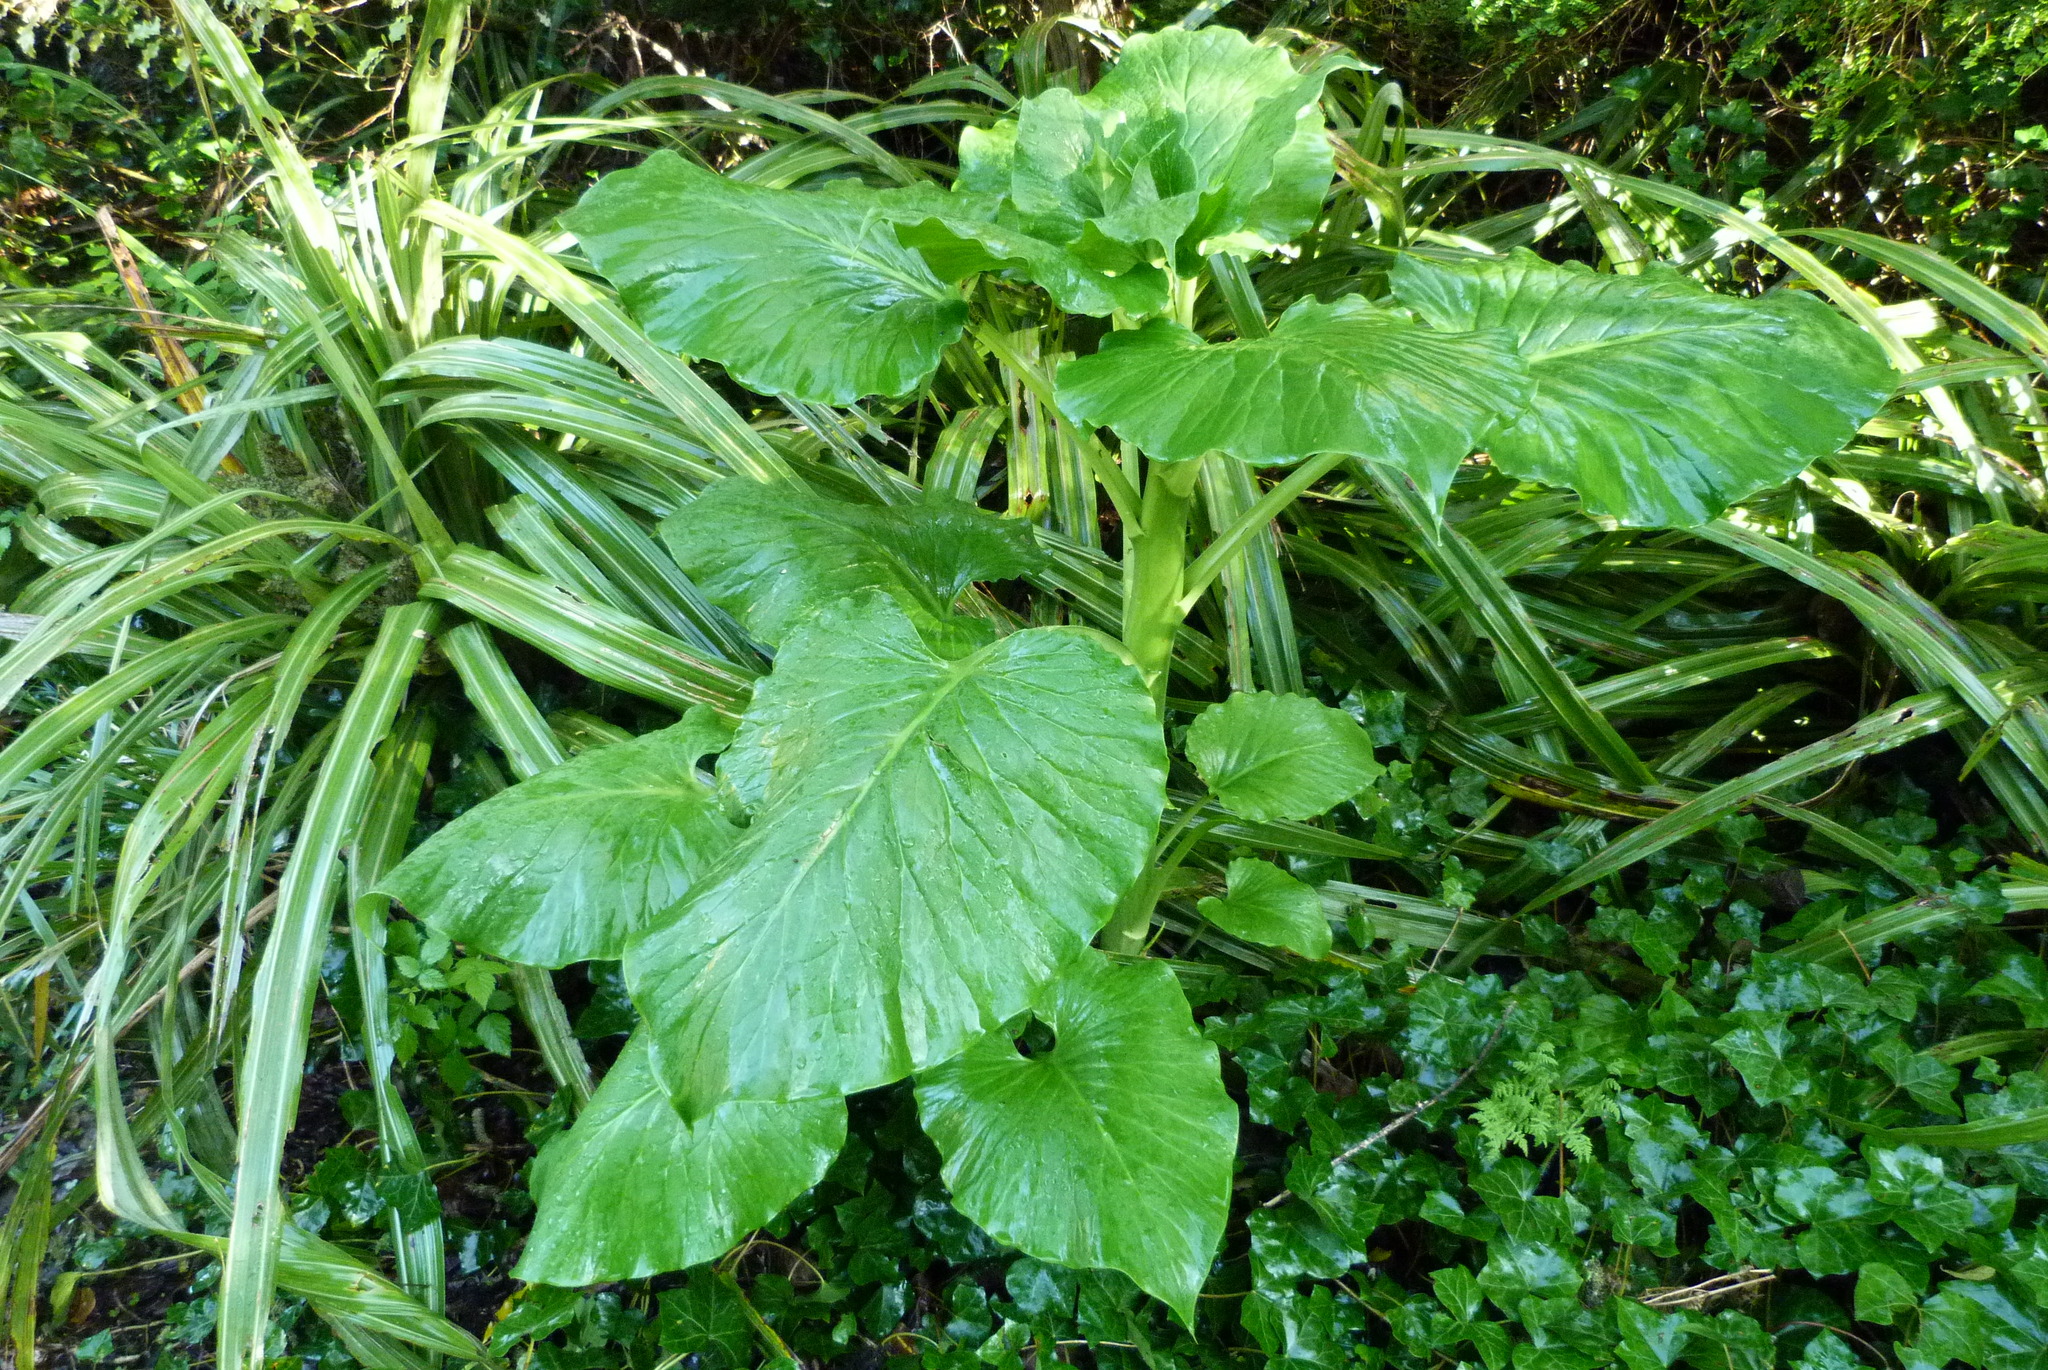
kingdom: Plantae
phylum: Tracheophyta
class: Liliopsida
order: Liliales
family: Liliaceae
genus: Cardiocrinum
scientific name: Cardiocrinum giganteum
